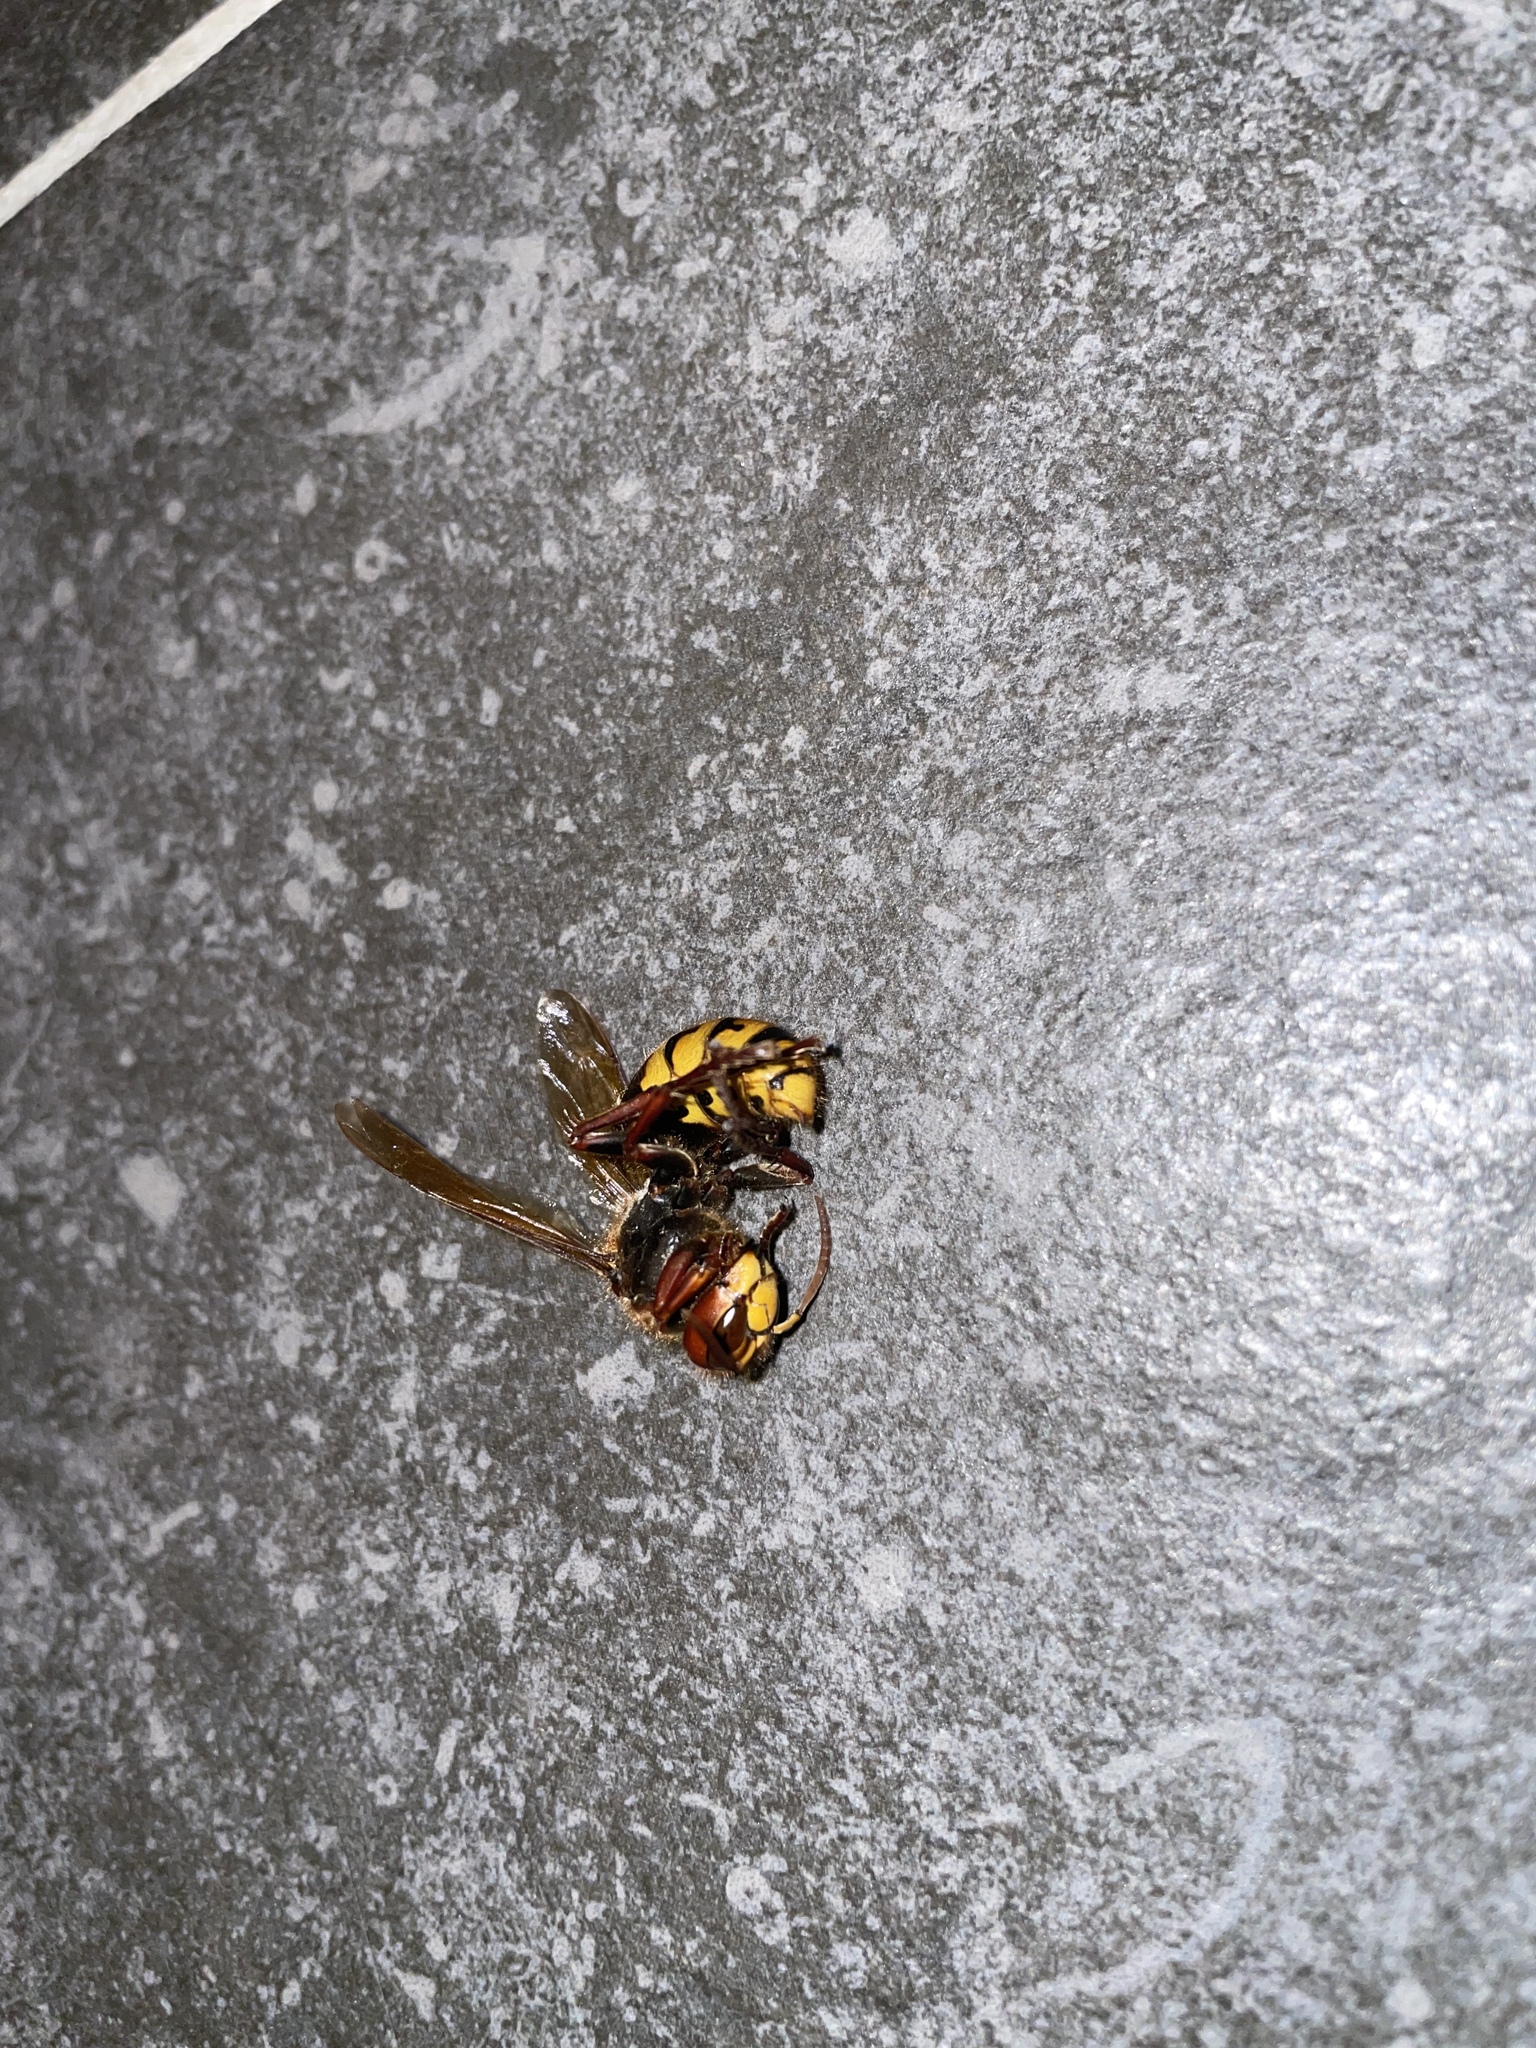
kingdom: Animalia
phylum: Arthropoda
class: Insecta
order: Hymenoptera
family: Vespidae
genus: Vespa
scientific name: Vespa crabro
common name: Hornet
